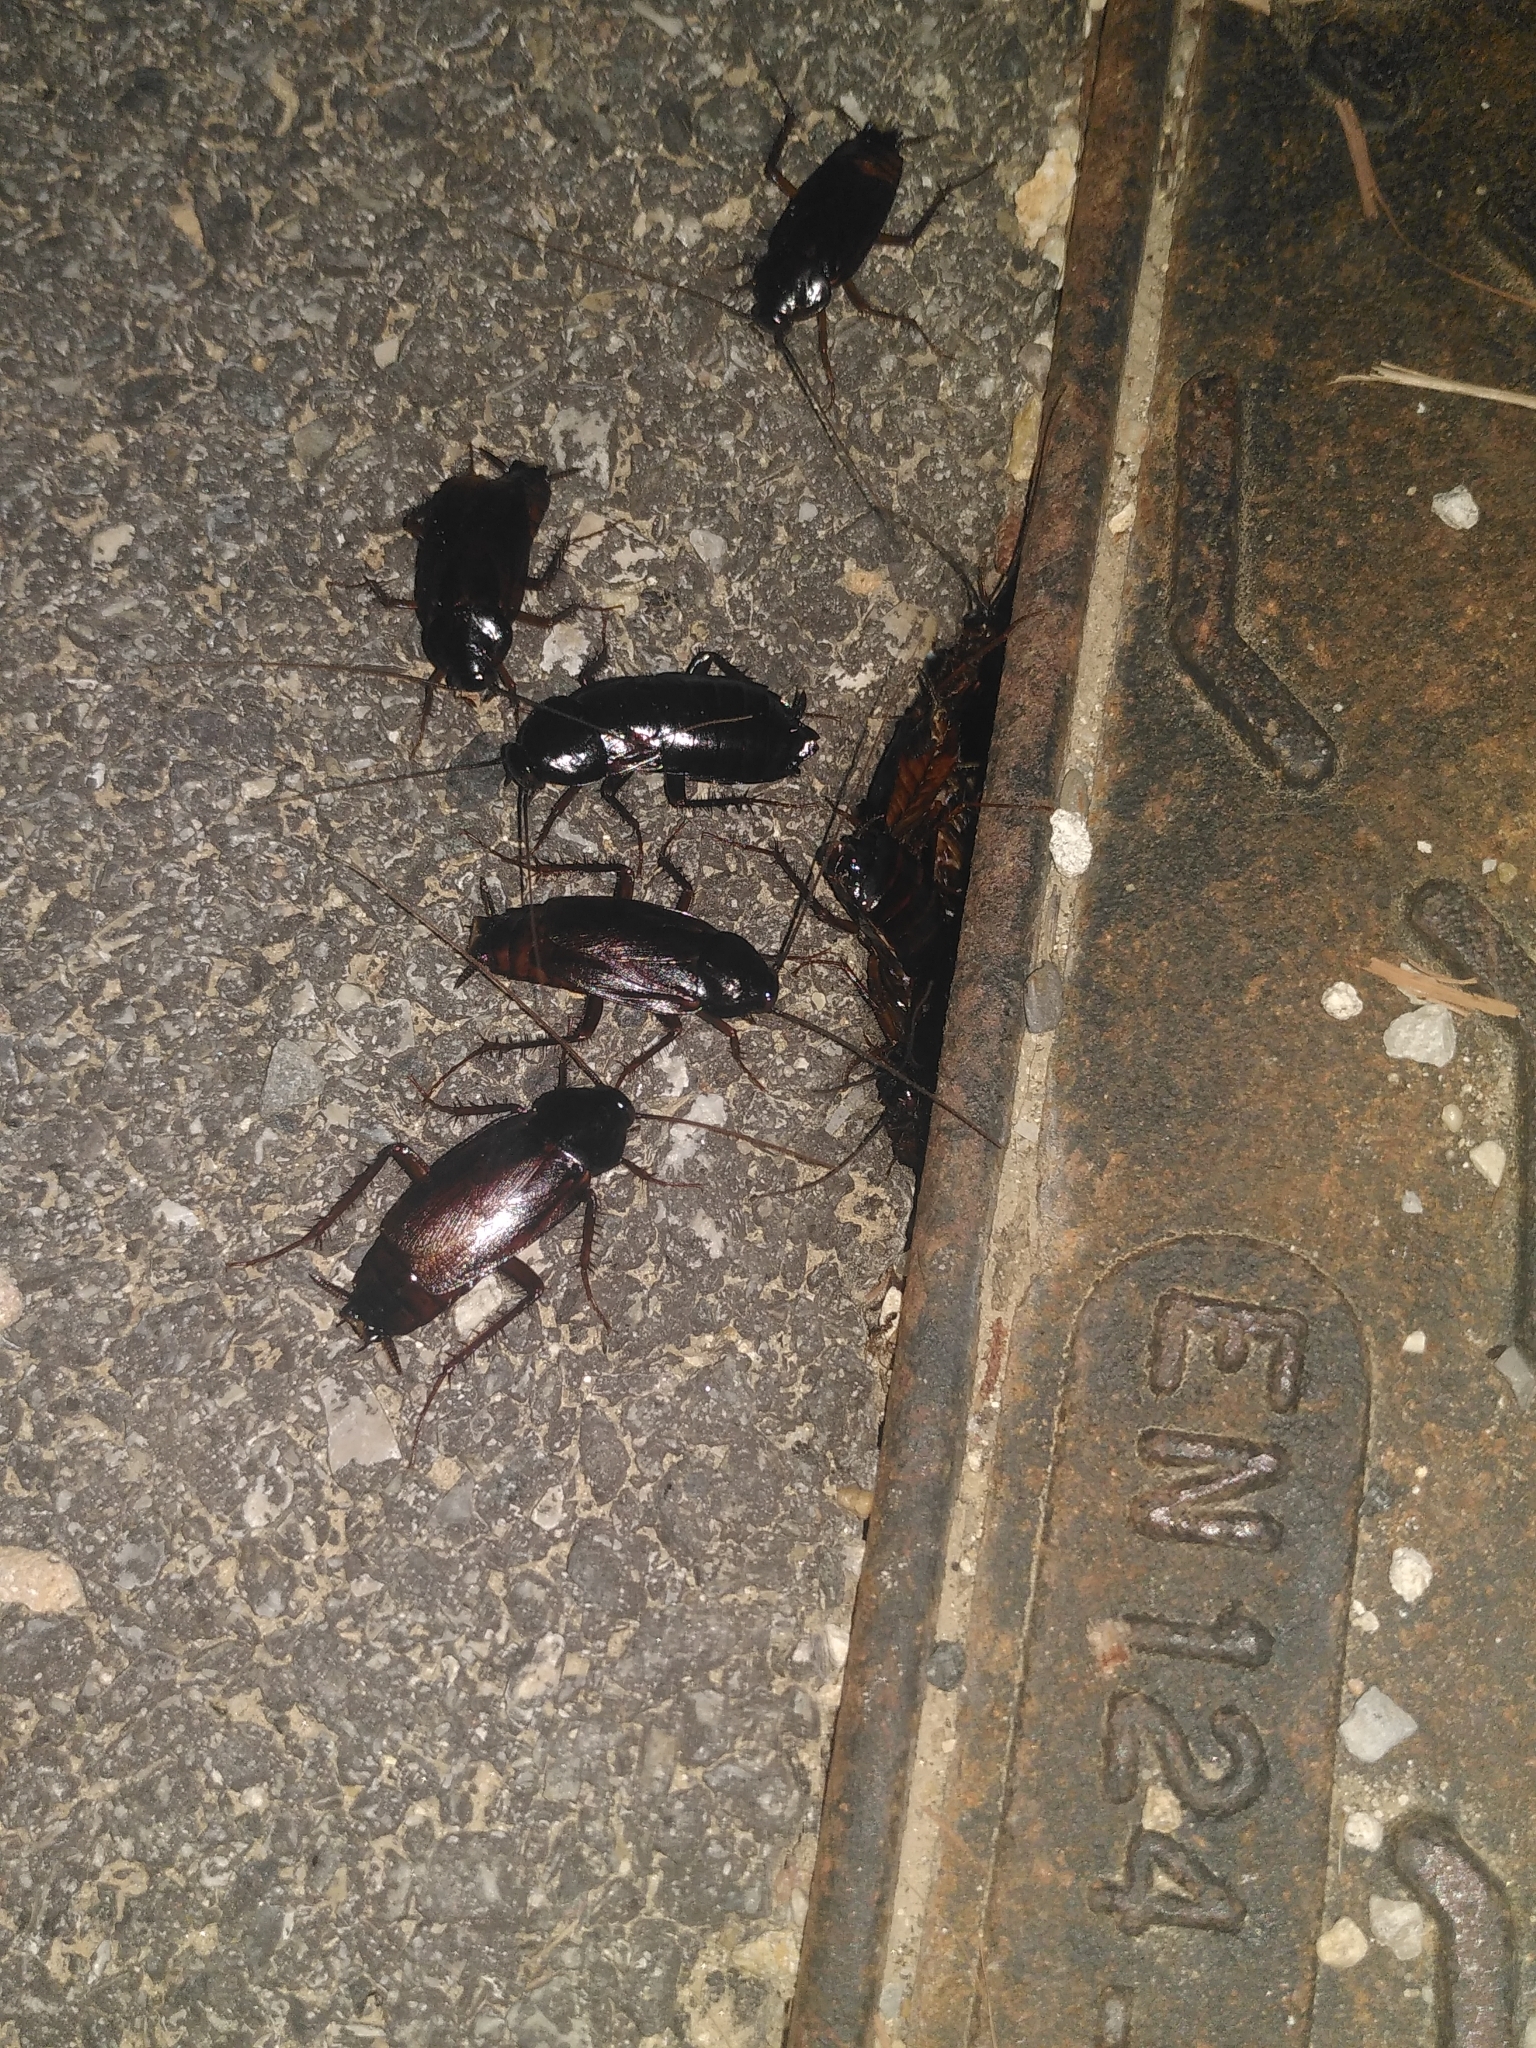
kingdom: Animalia
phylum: Arthropoda
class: Insecta
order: Blattodea
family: Blattidae
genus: Blatta
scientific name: Blatta orientalis
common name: Oriental cockroach
